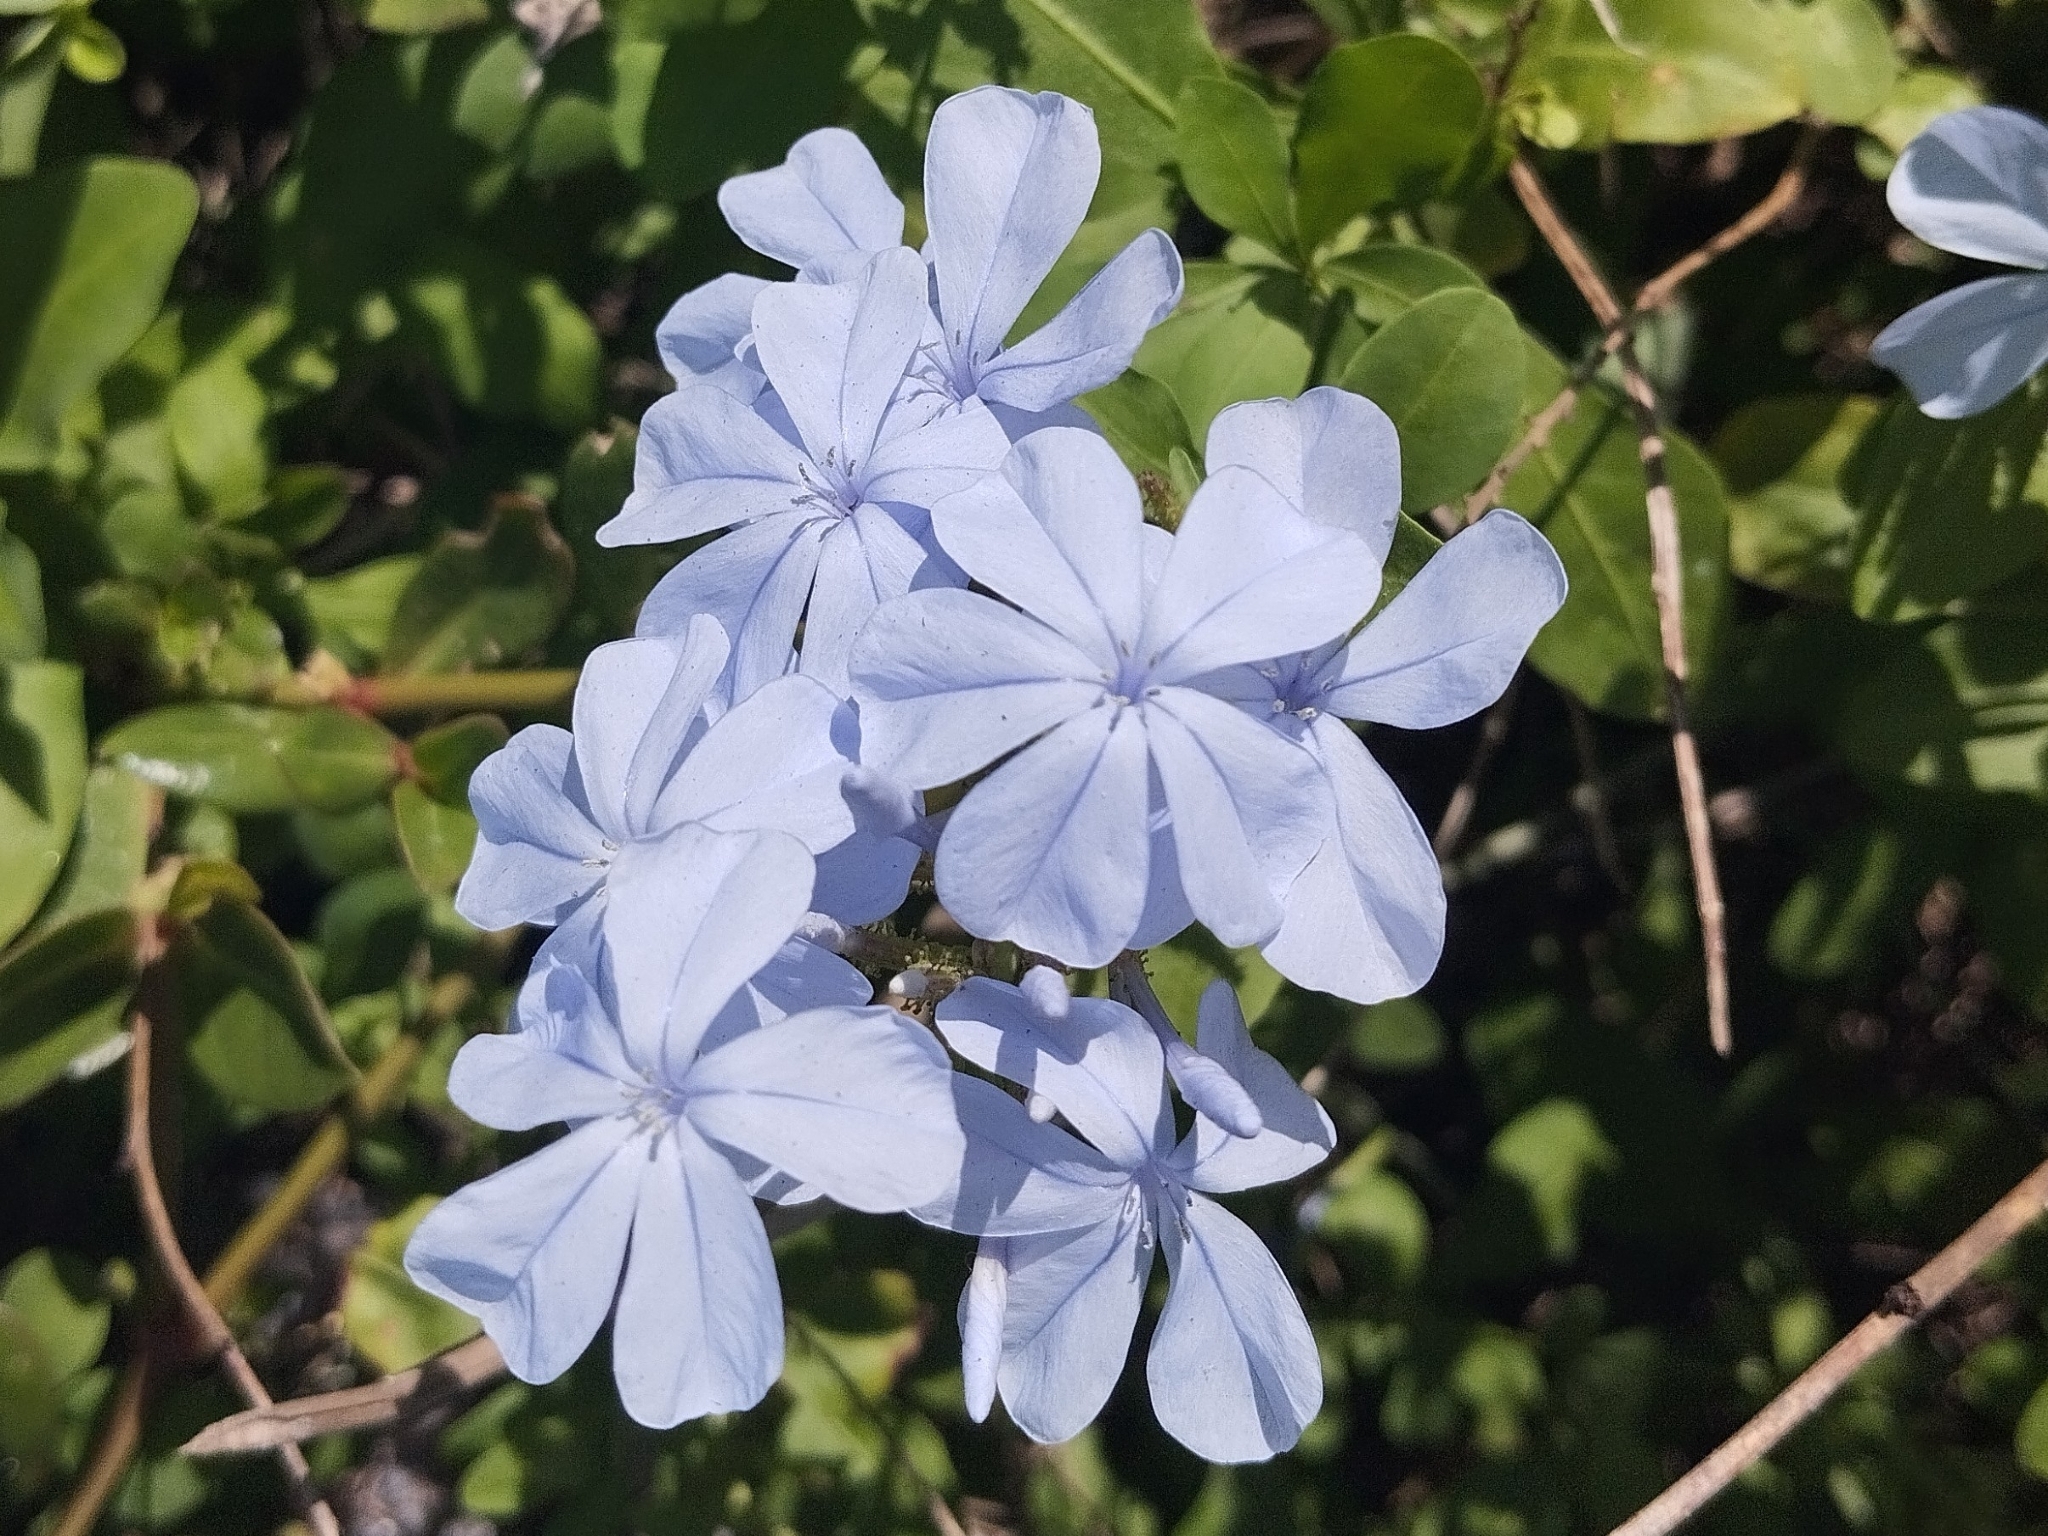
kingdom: Plantae
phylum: Tracheophyta
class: Magnoliopsida
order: Caryophyllales
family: Plumbaginaceae
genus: Plumbago
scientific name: Plumbago auriculata
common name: Cape leadwort
